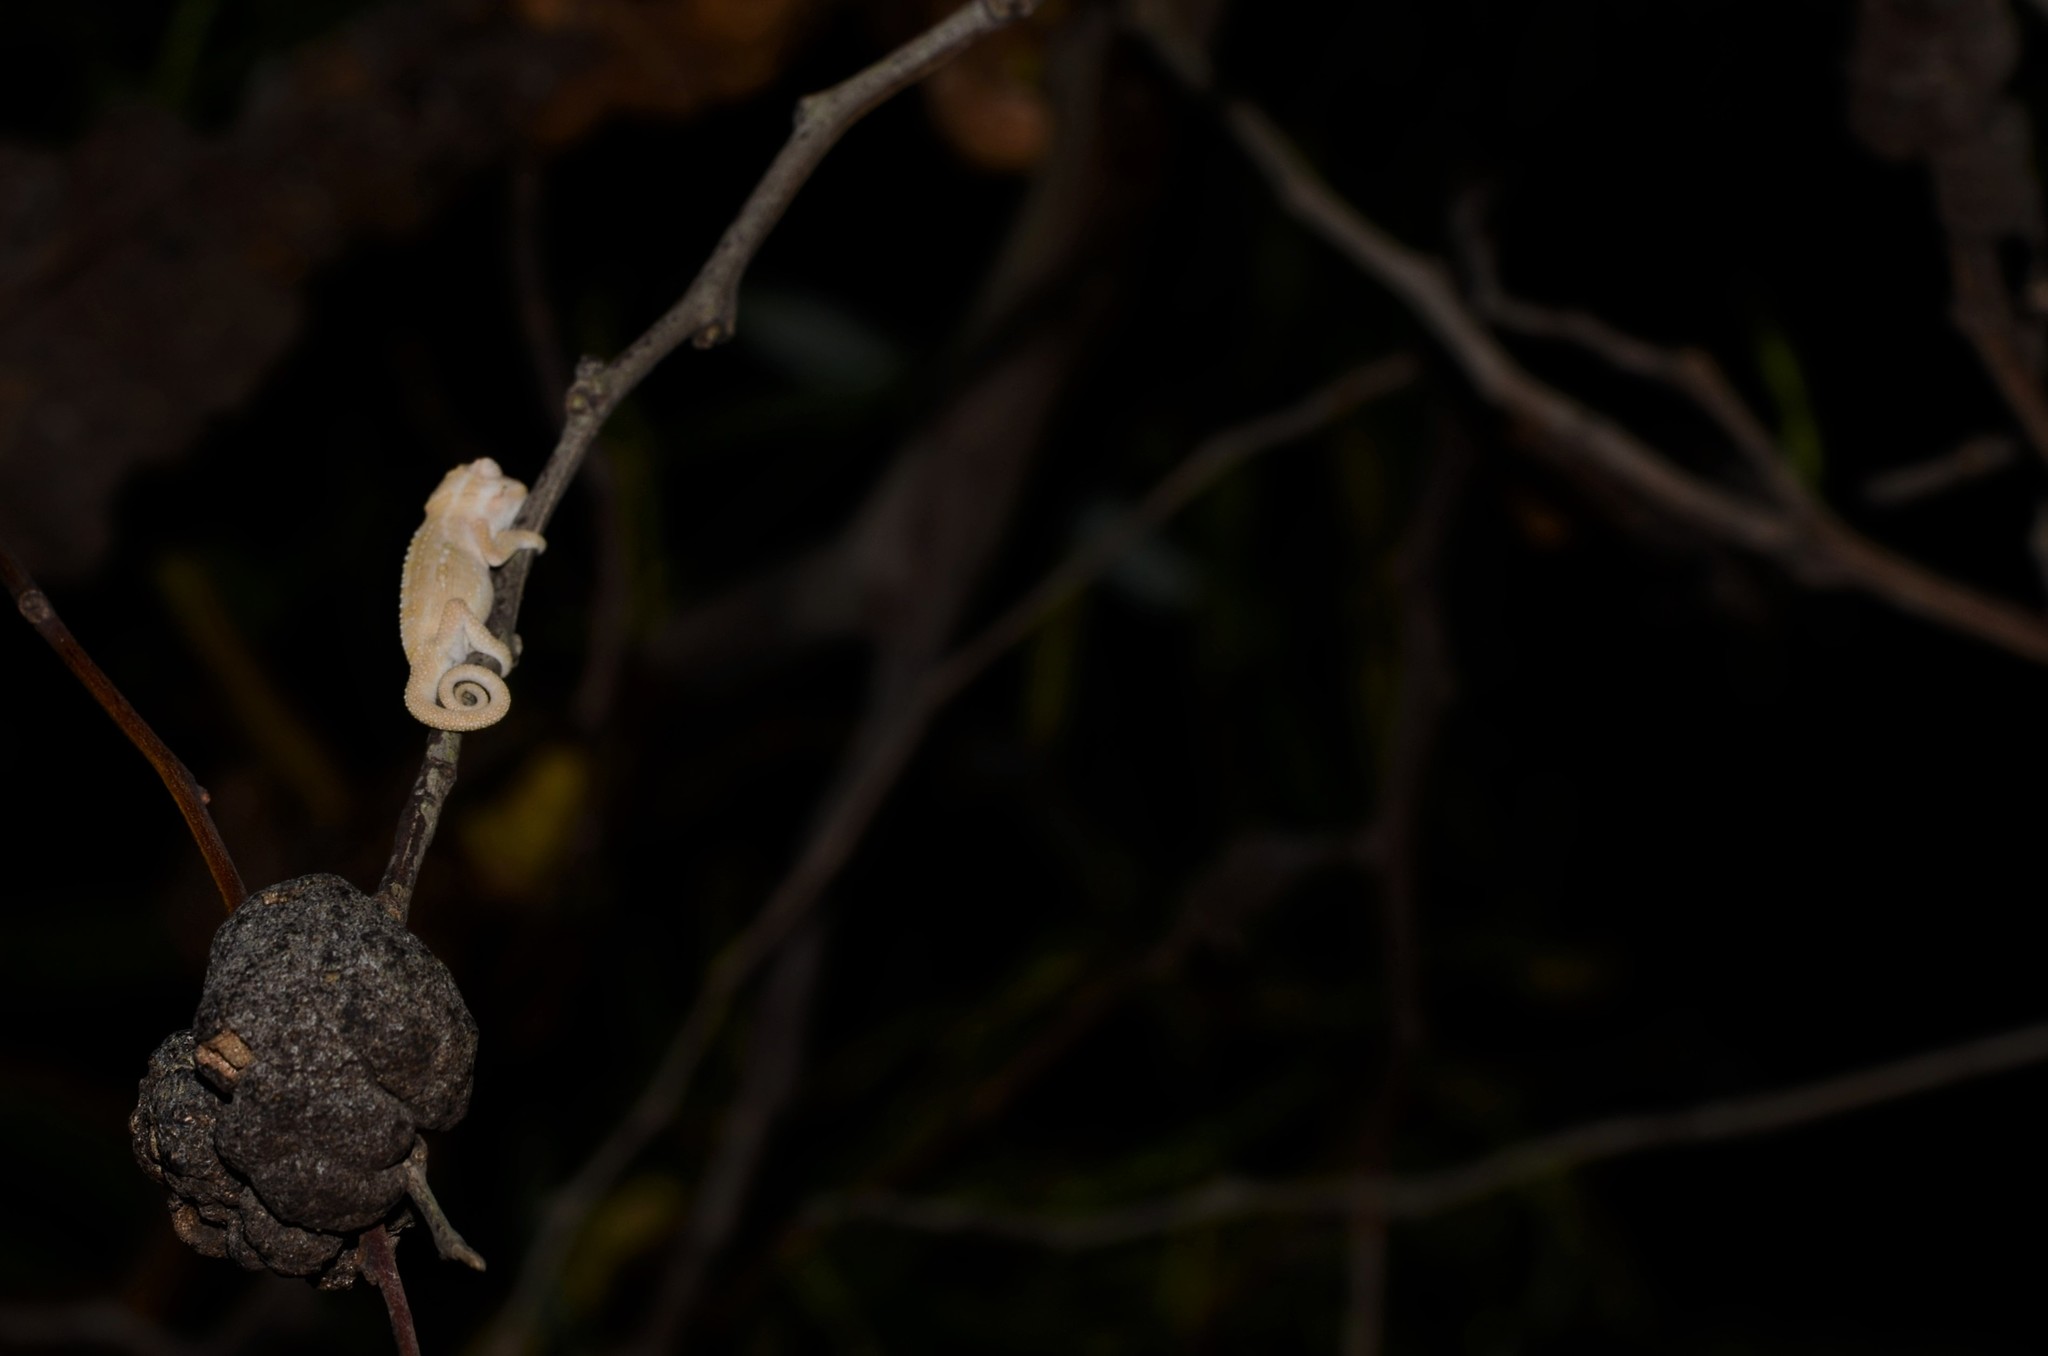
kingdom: Animalia
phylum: Chordata
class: Squamata
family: Chamaeleonidae
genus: Bradypodion
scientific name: Bradypodion pumilum
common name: Cape dwarf chameleon
